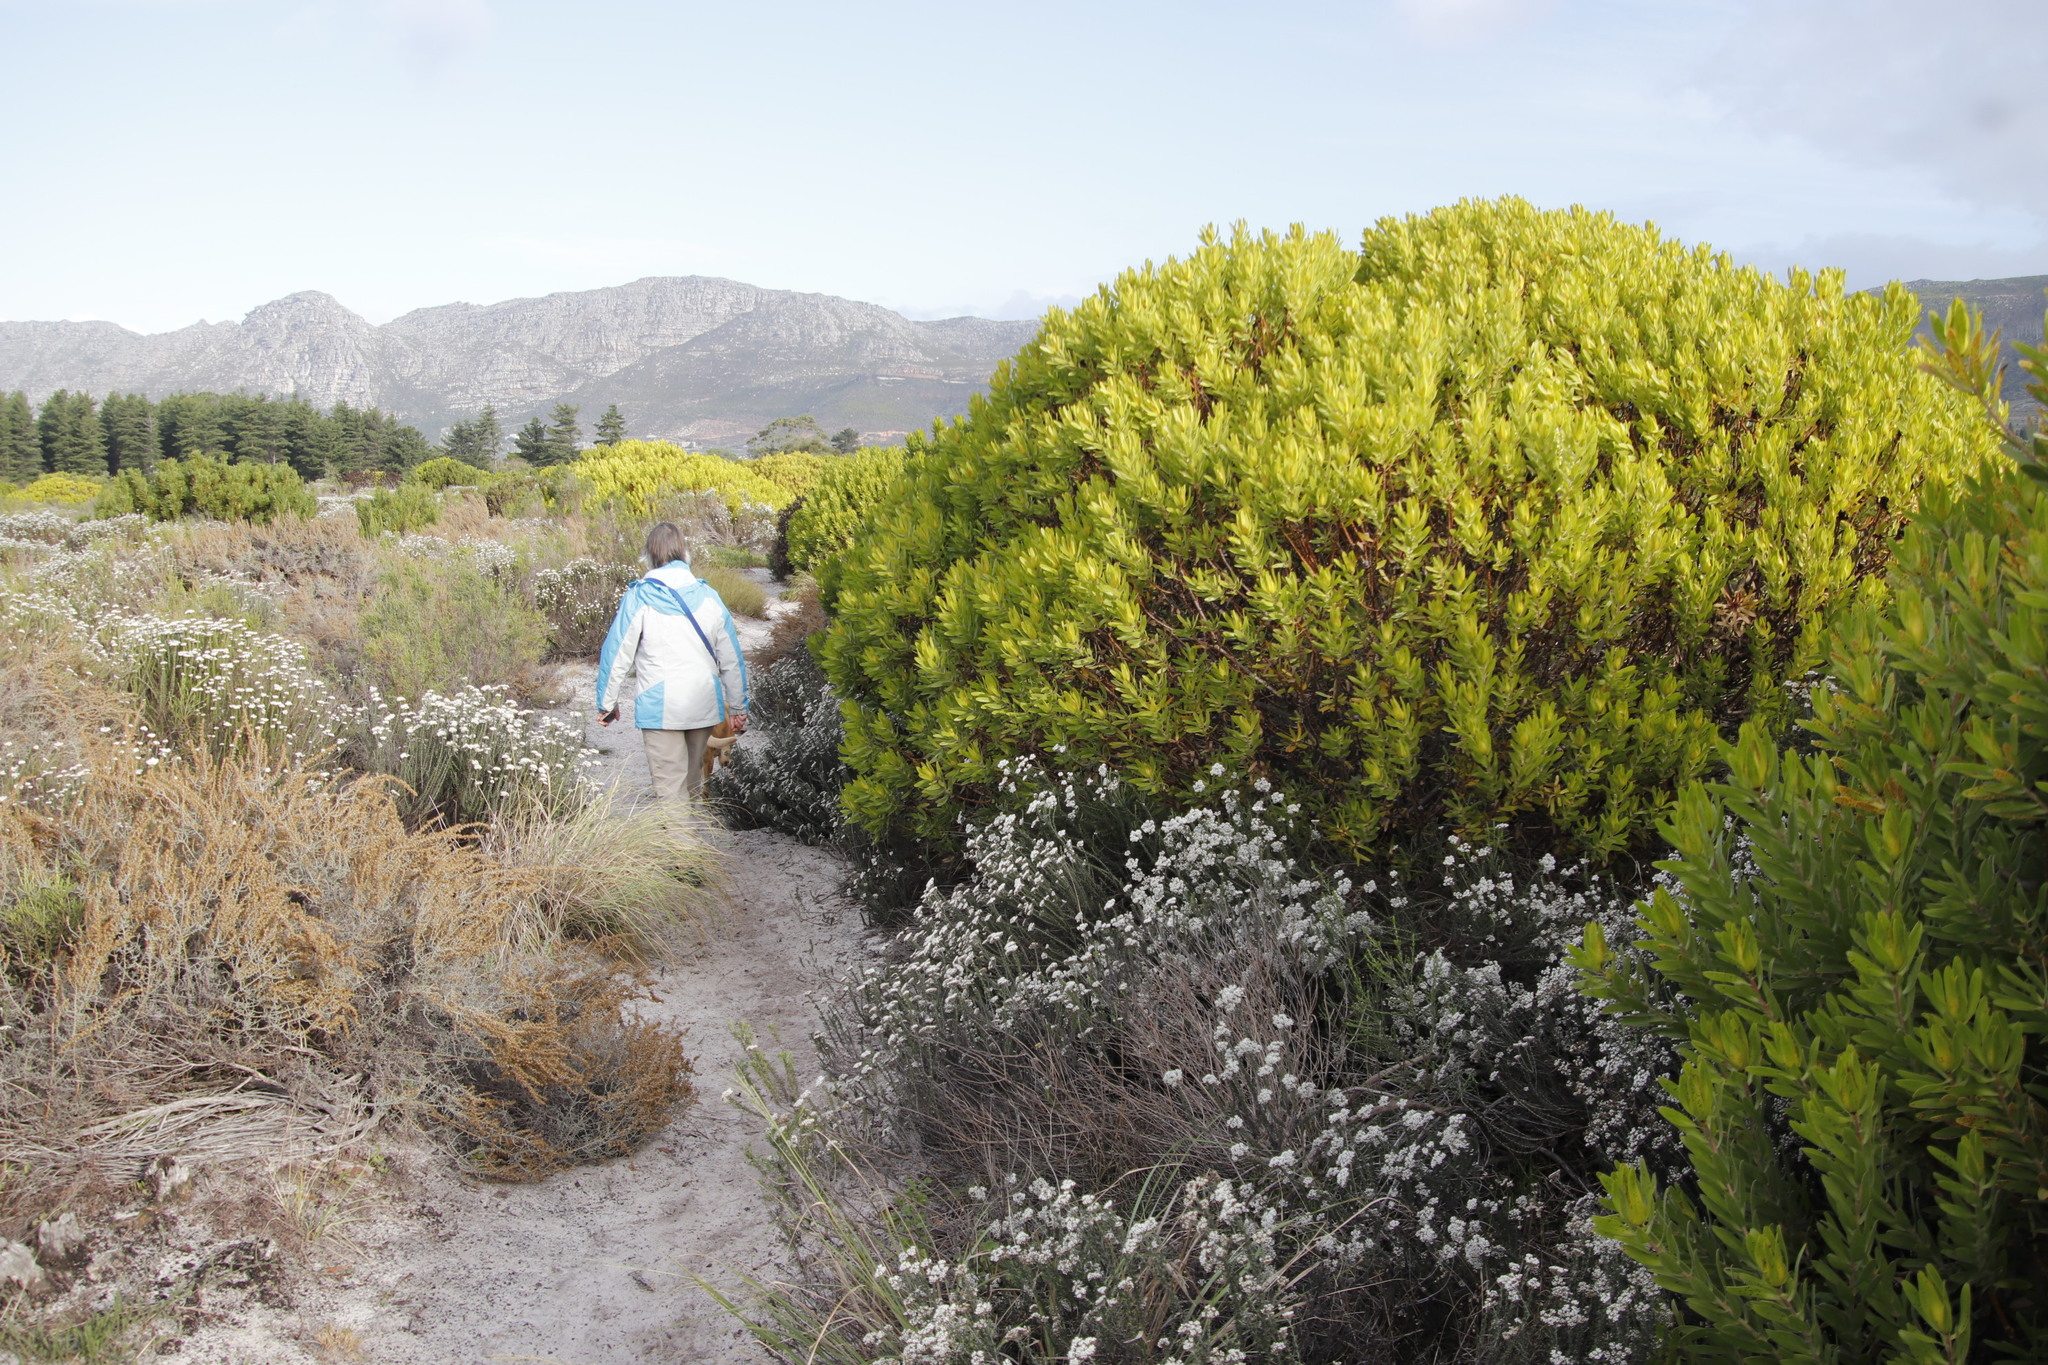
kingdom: Plantae
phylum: Tracheophyta
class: Magnoliopsida
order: Proteales
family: Proteaceae
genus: Leucadendron
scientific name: Leucadendron laureolum
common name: Golden sunshinebush
